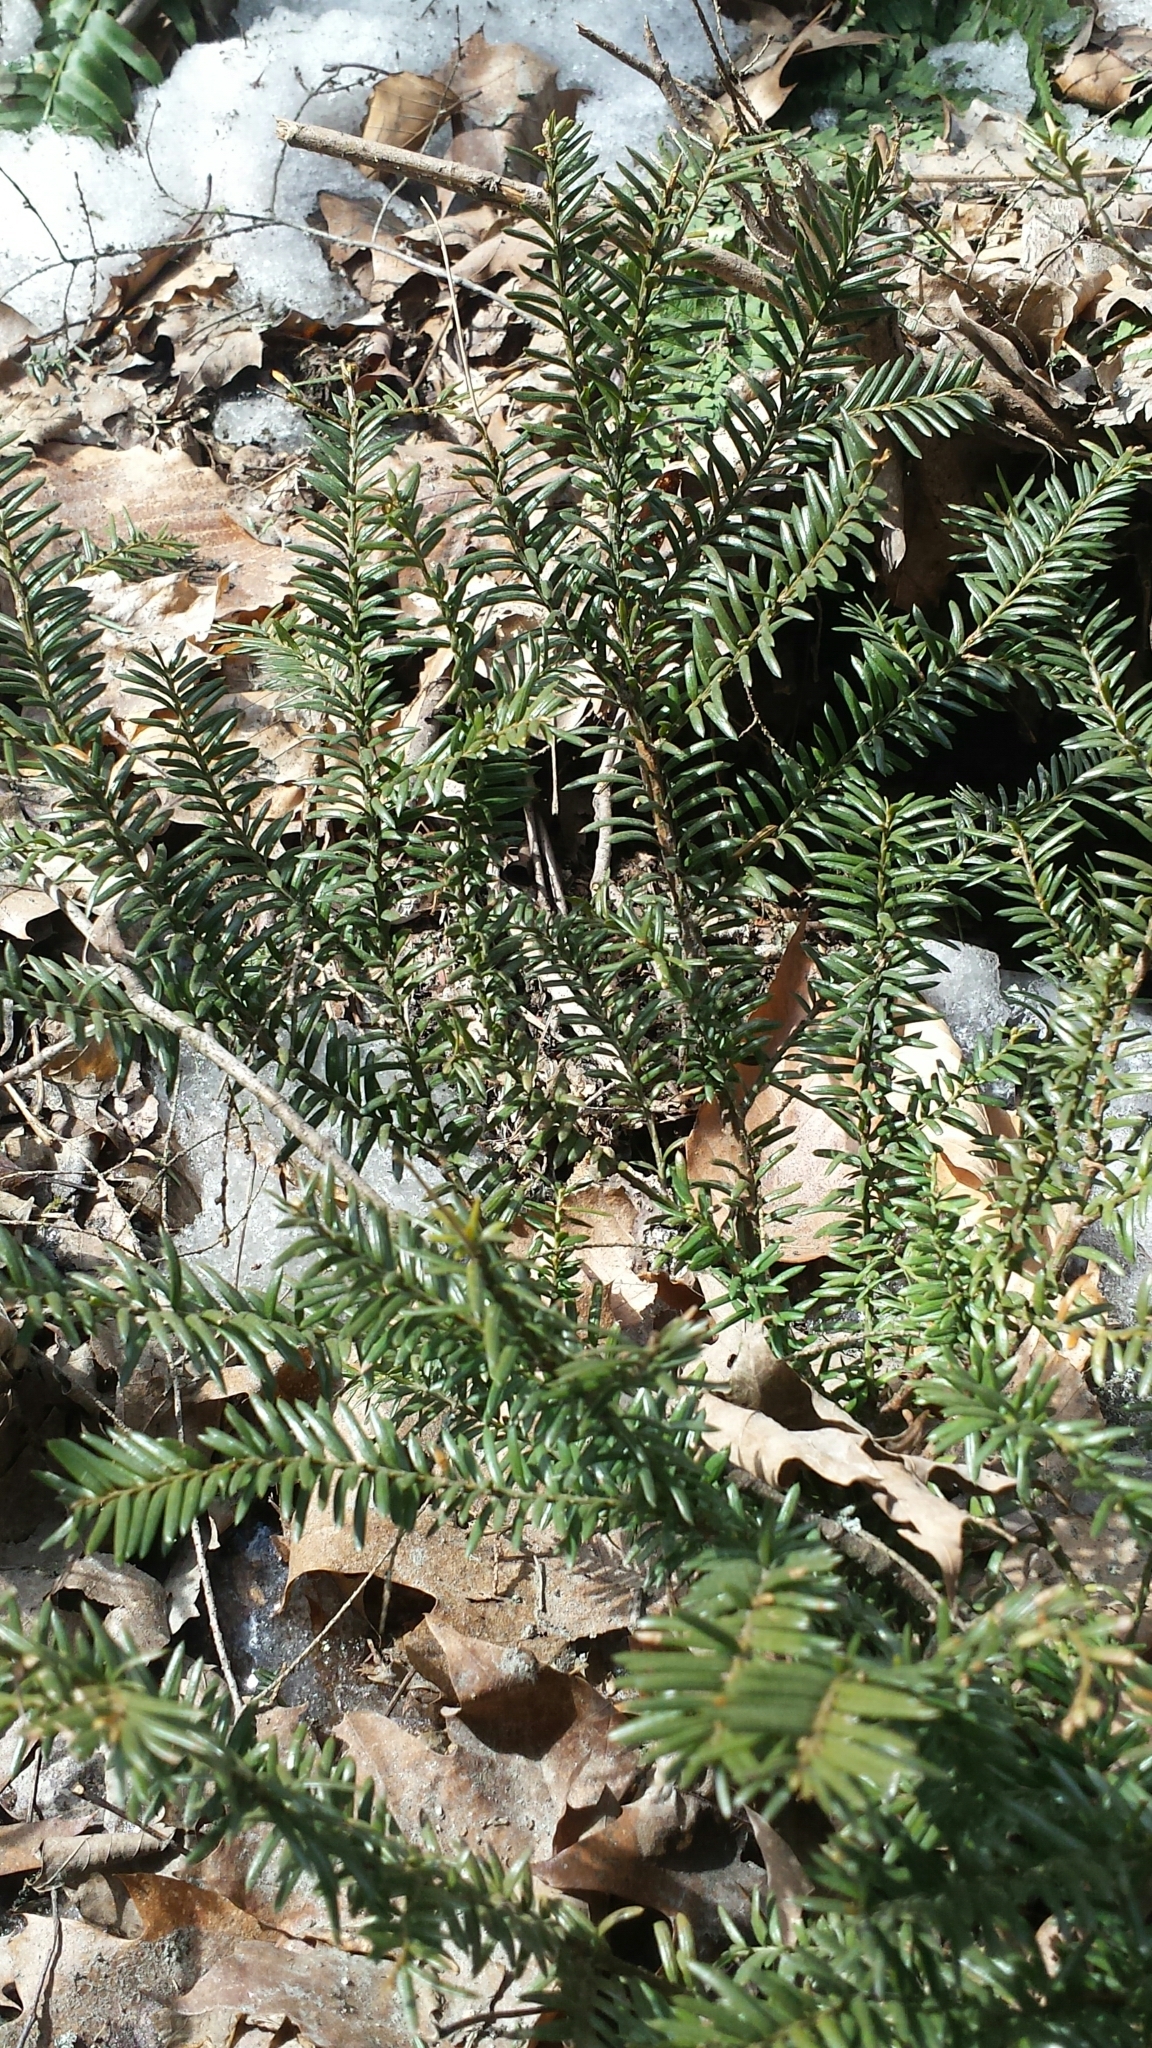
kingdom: Plantae
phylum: Tracheophyta
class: Pinopsida
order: Pinales
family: Taxaceae
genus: Taxus
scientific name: Taxus canadensis
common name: American yew
